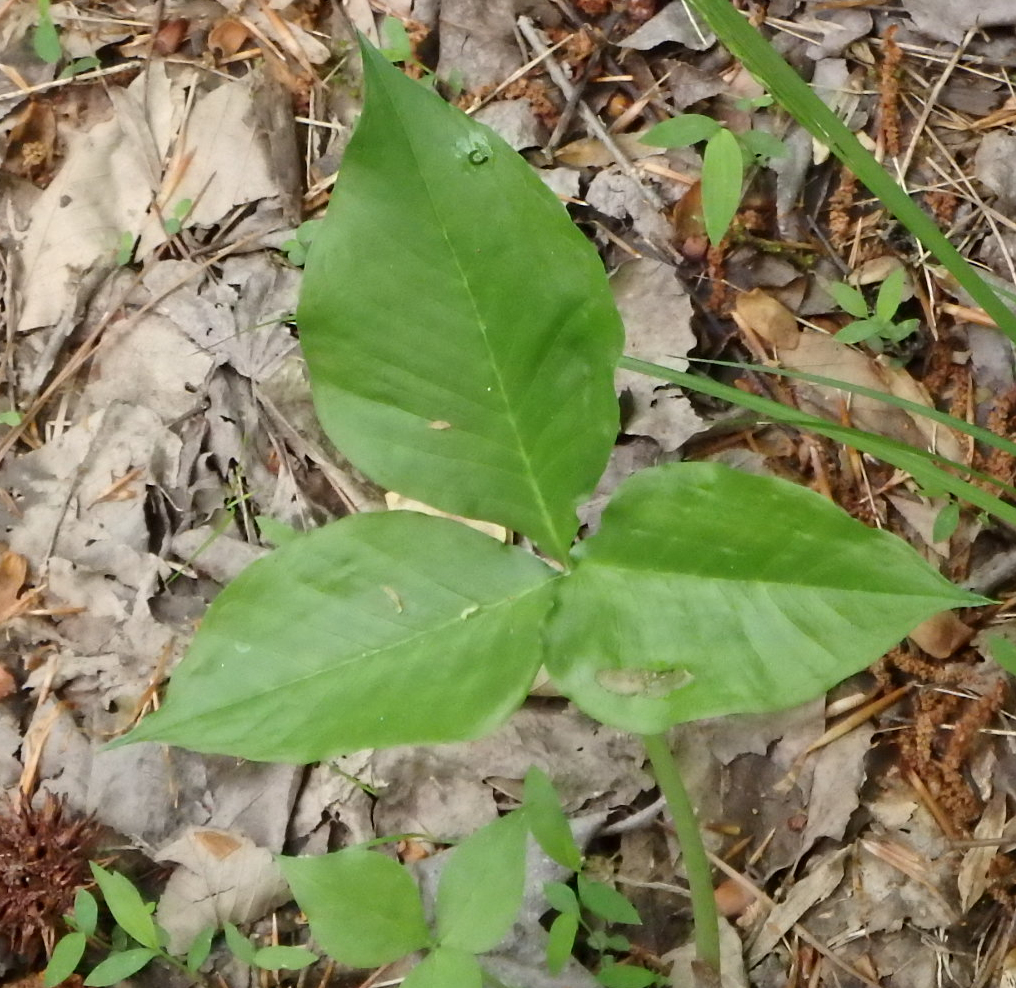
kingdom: Plantae
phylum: Tracheophyta
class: Liliopsida
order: Alismatales
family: Araceae
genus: Arisaema
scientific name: Arisaema triphyllum
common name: Jack-in-the-pulpit
